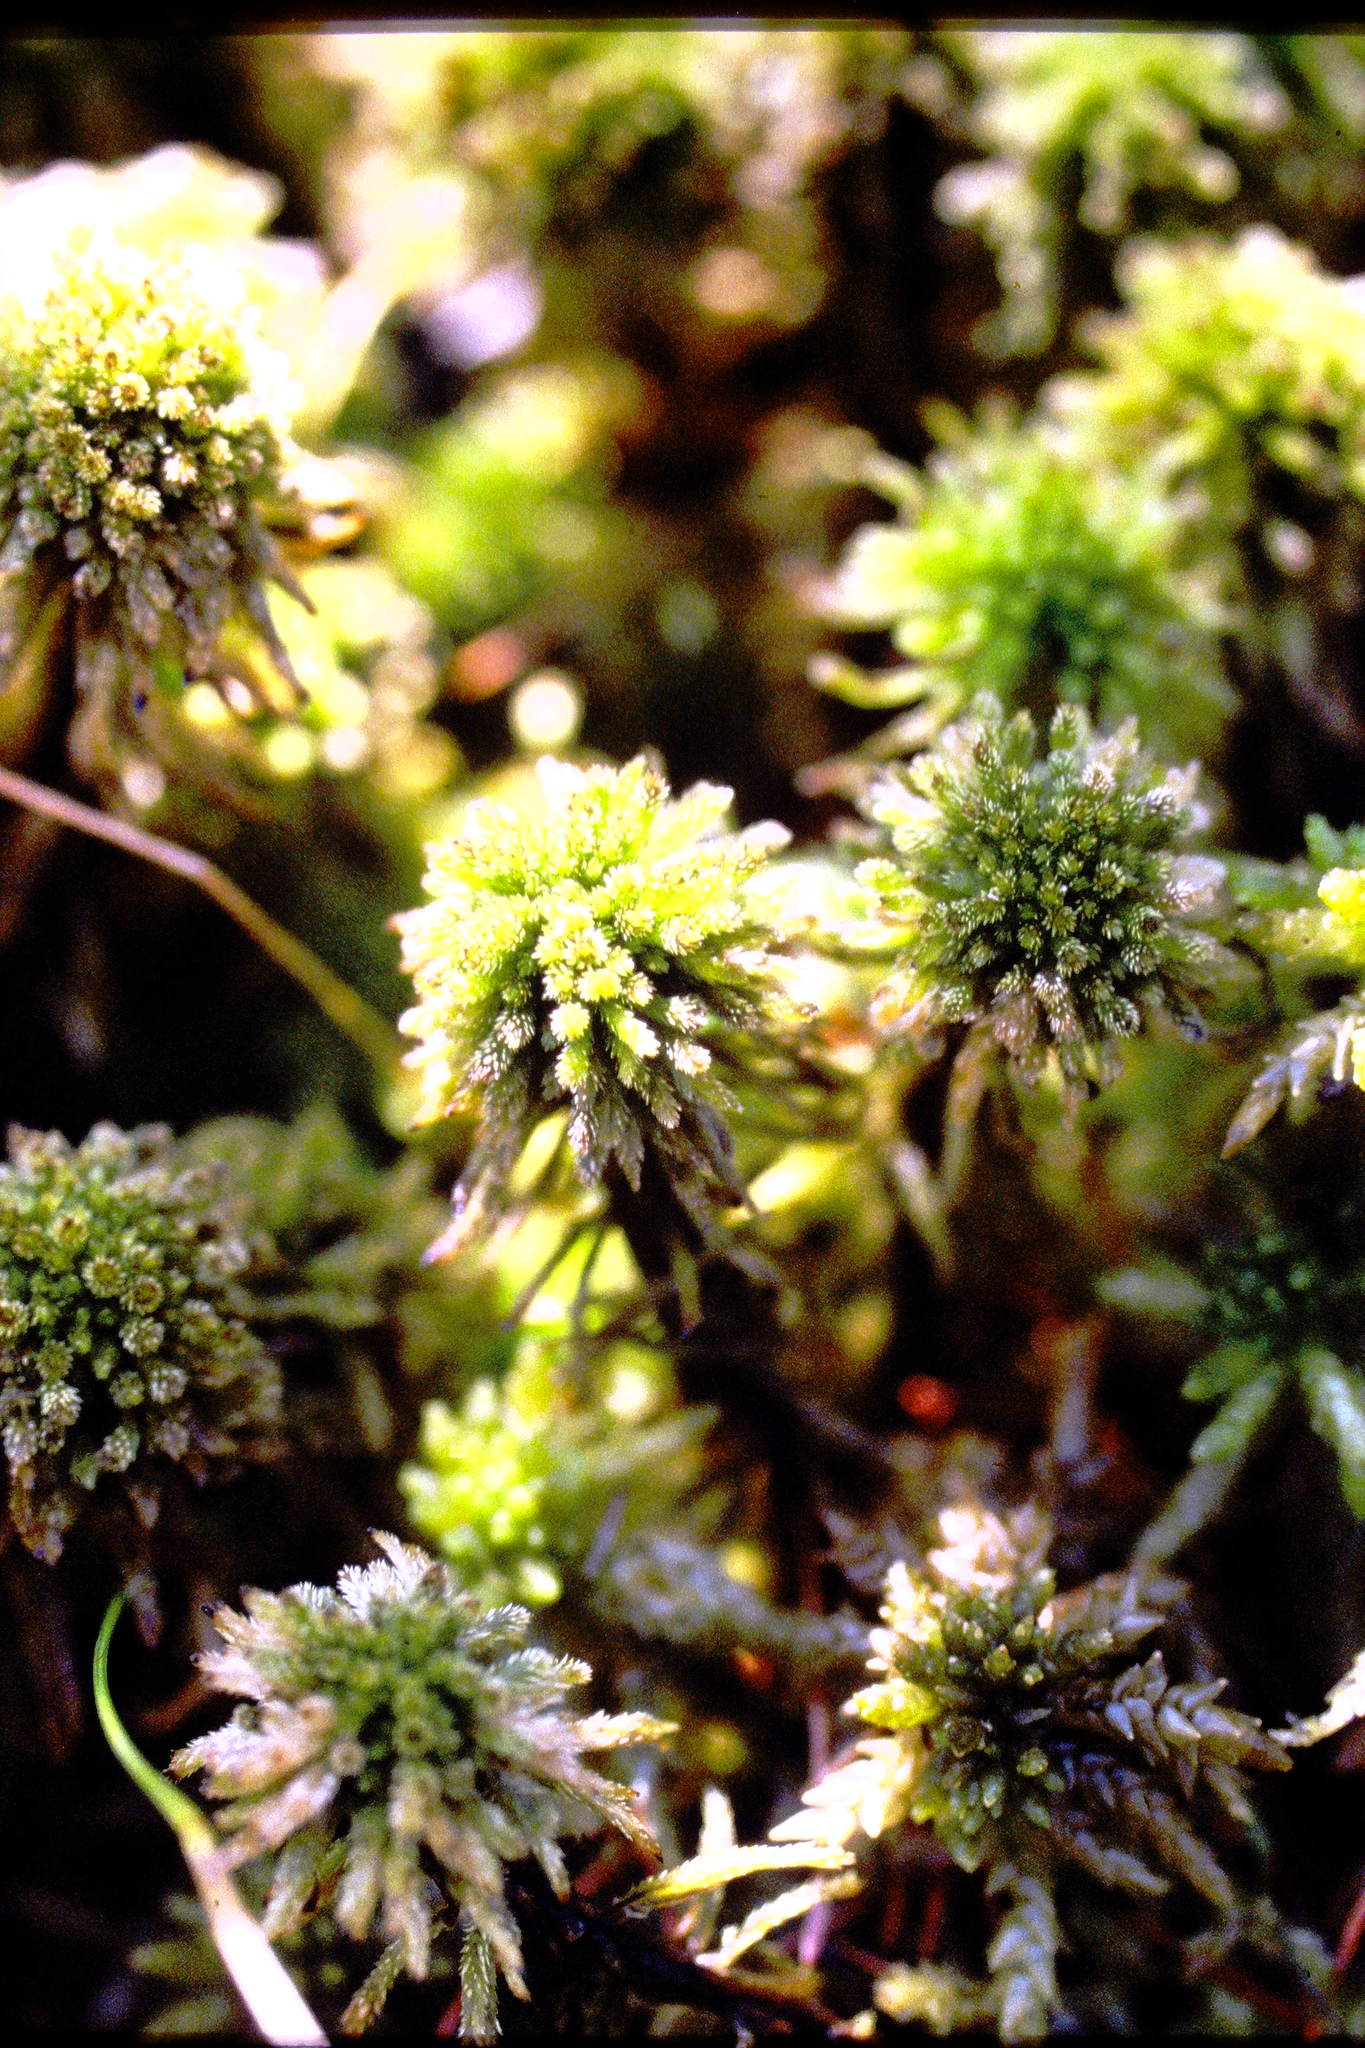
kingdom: Plantae
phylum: Bryophyta
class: Sphagnopsida
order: Sphagnales
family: Sphagnaceae
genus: Sphagnum
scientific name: Sphagnum wulfianum
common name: Wulf's peat moss
